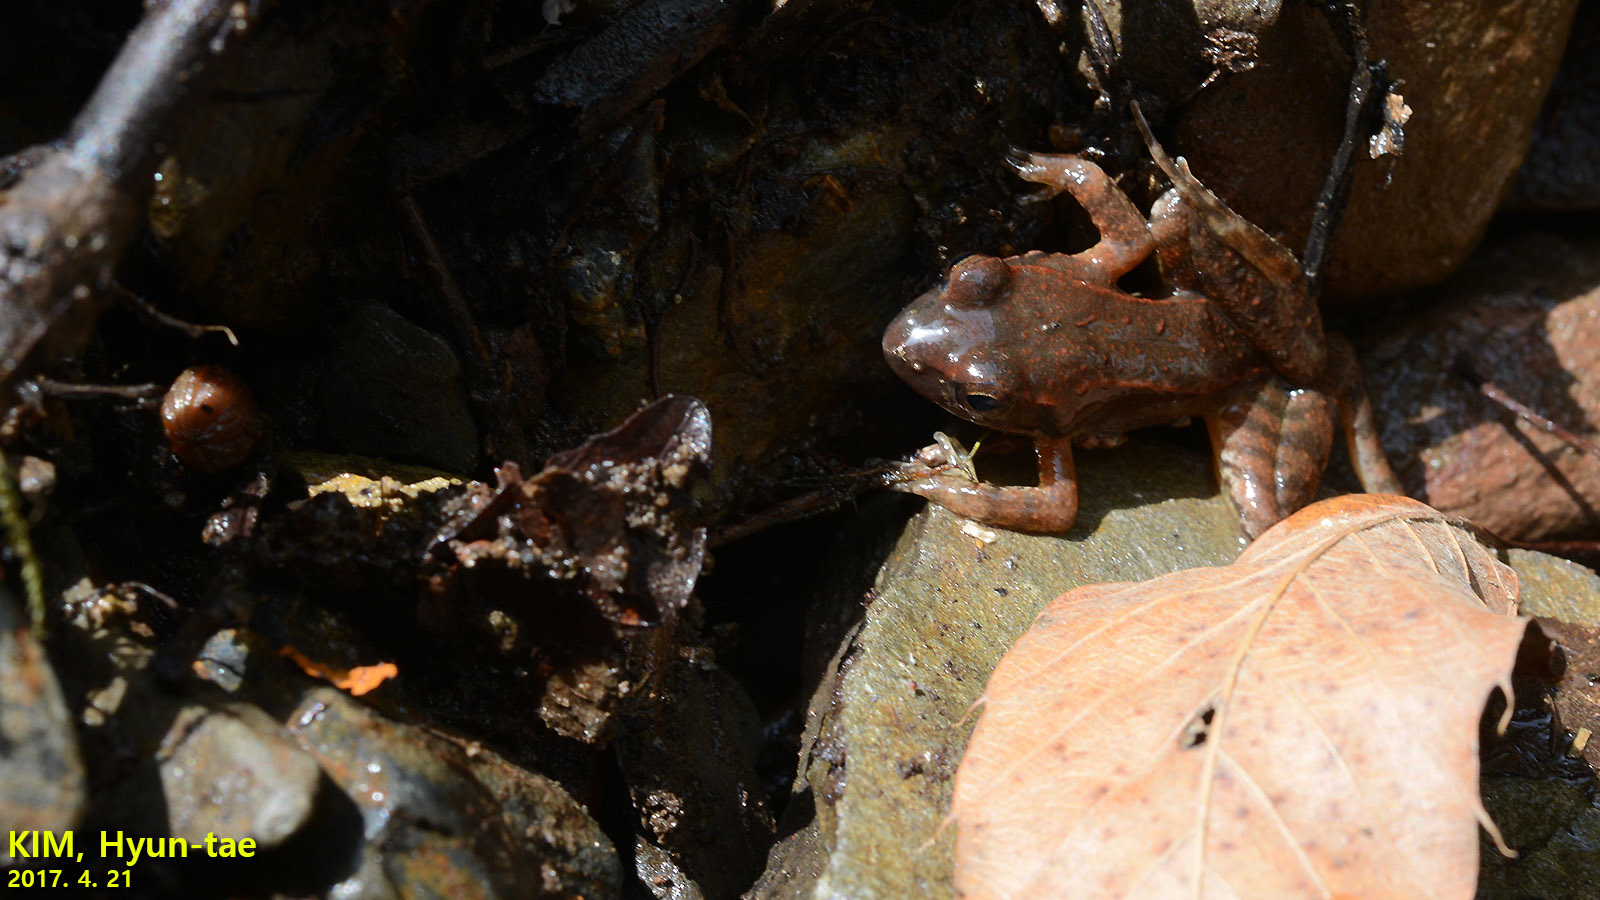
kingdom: Animalia
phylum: Chordata
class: Amphibia
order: Anura
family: Ranidae
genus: Rana
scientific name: Rana huanrenensis
